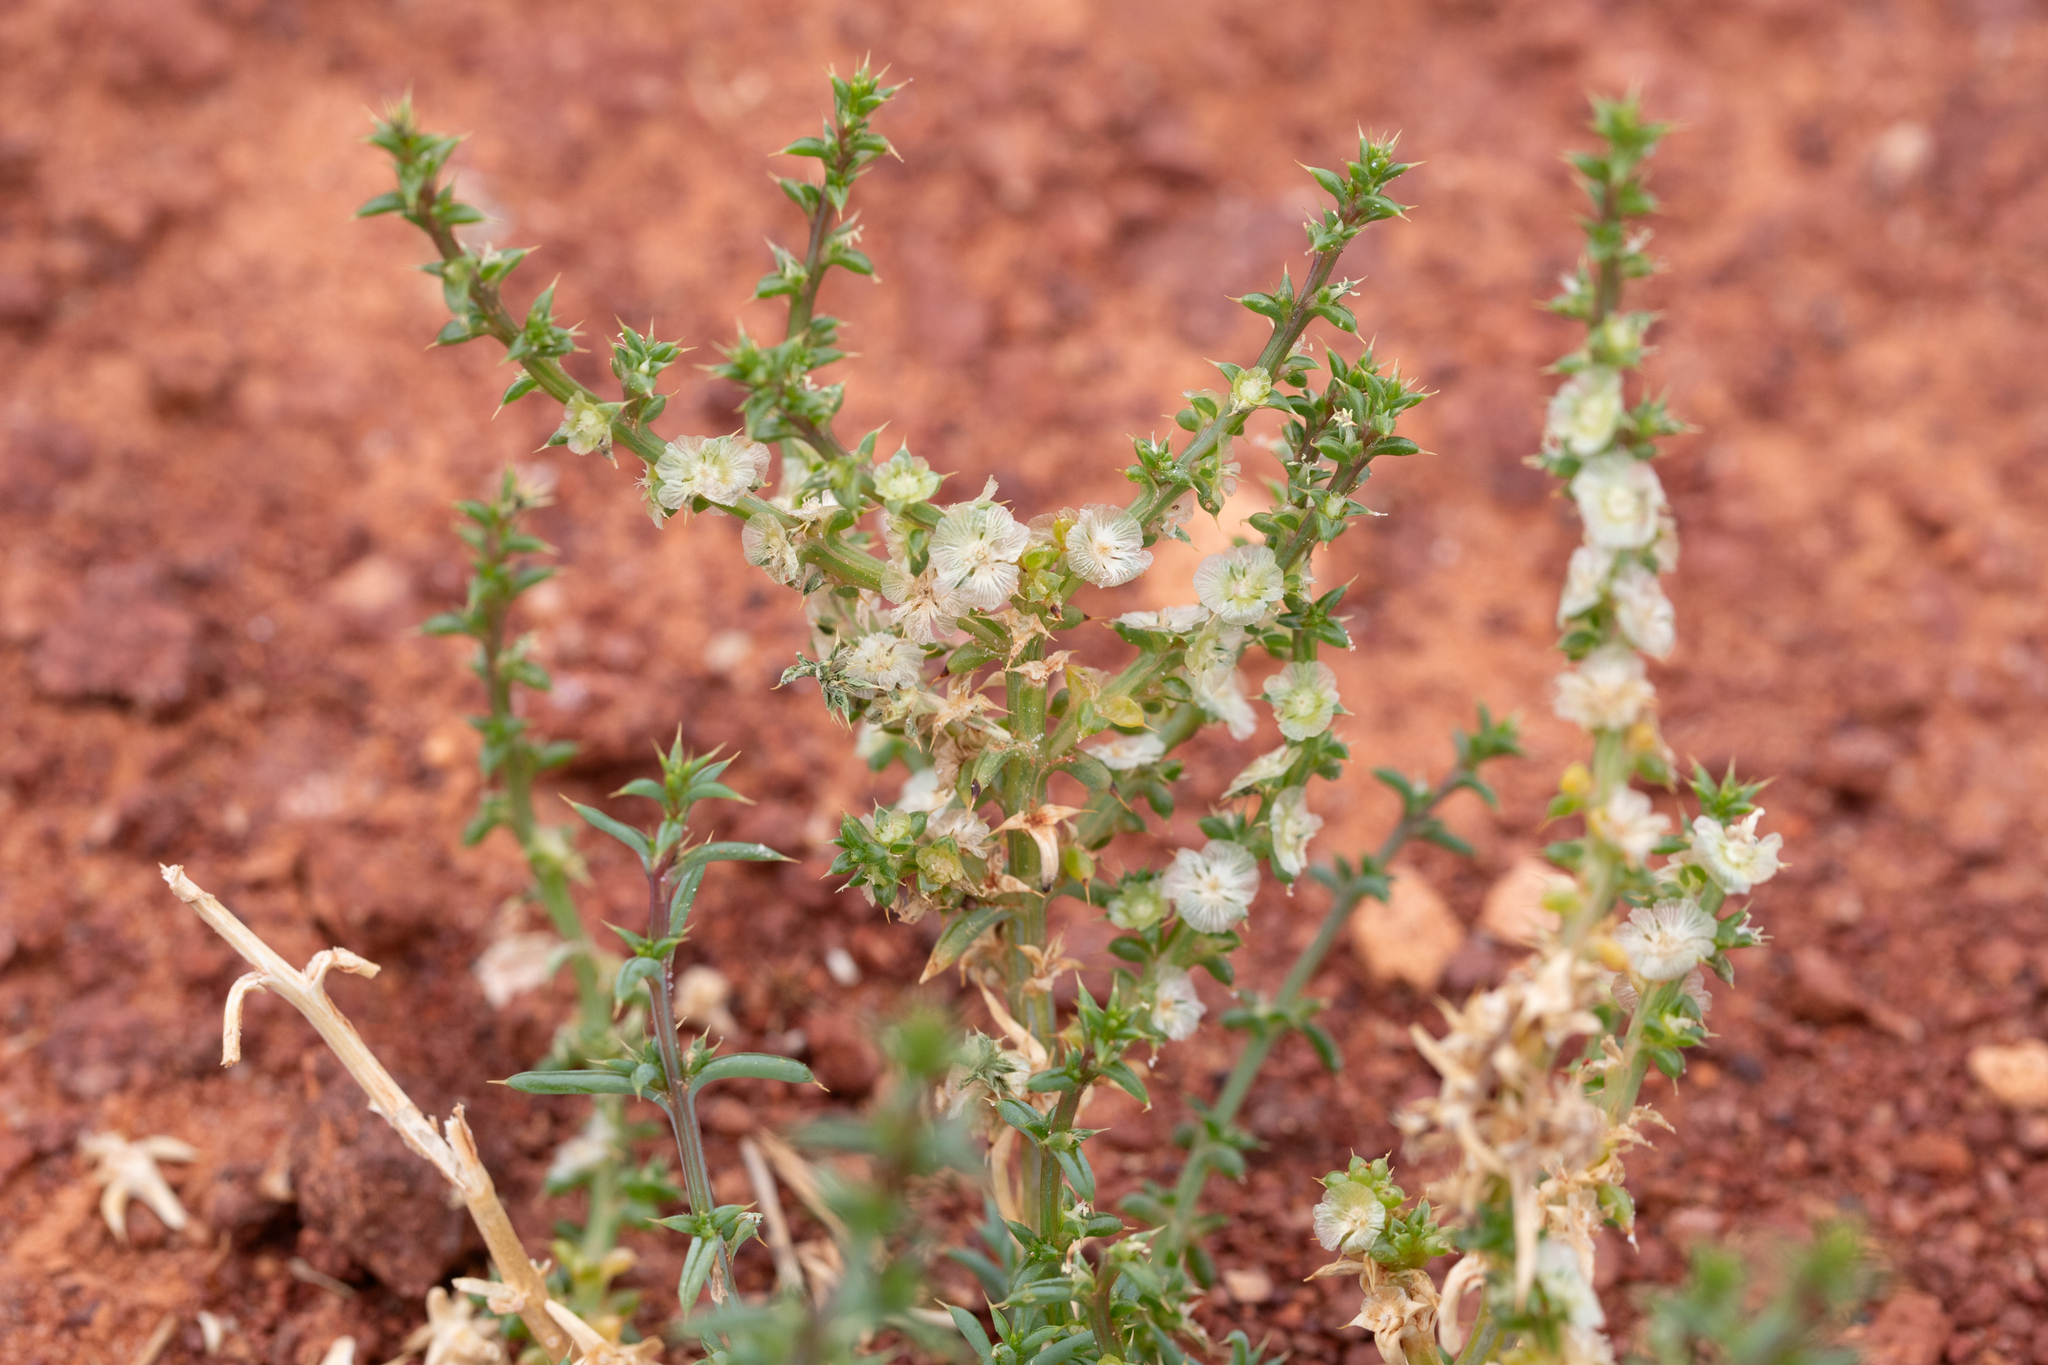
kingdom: Plantae
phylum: Tracheophyta
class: Magnoliopsida
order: Caryophyllales
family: Amaranthaceae
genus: Salsola
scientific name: Salsola australis
